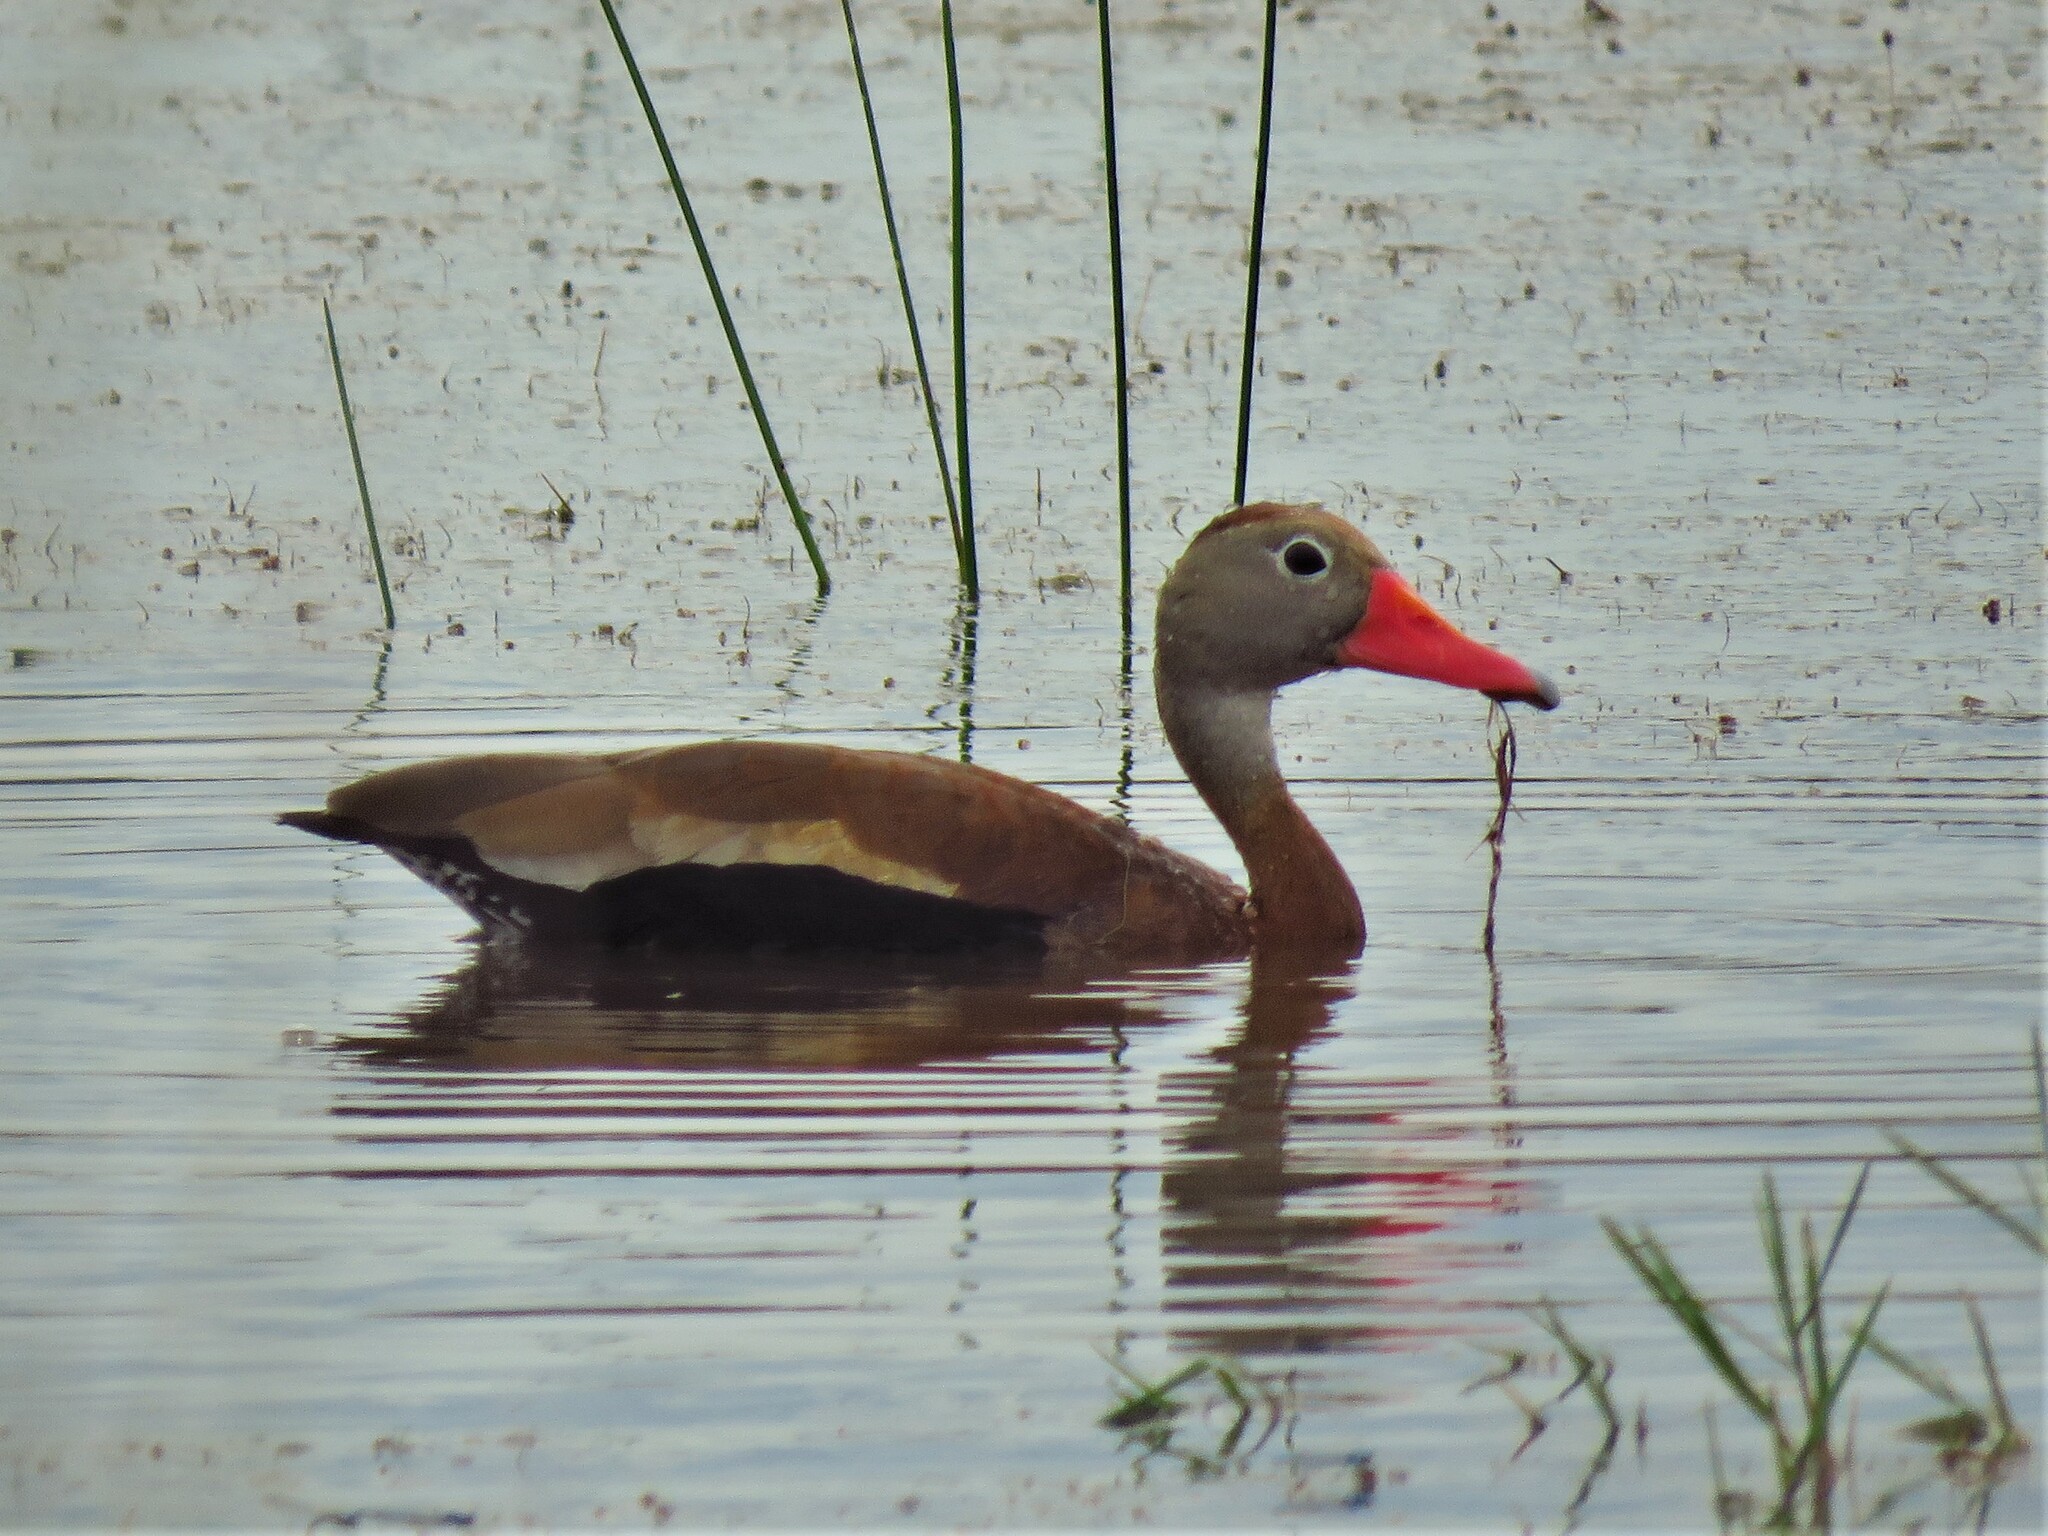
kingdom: Animalia
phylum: Chordata
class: Aves
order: Anseriformes
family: Anatidae
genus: Dendrocygna
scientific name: Dendrocygna autumnalis
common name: Black-bellied whistling duck
